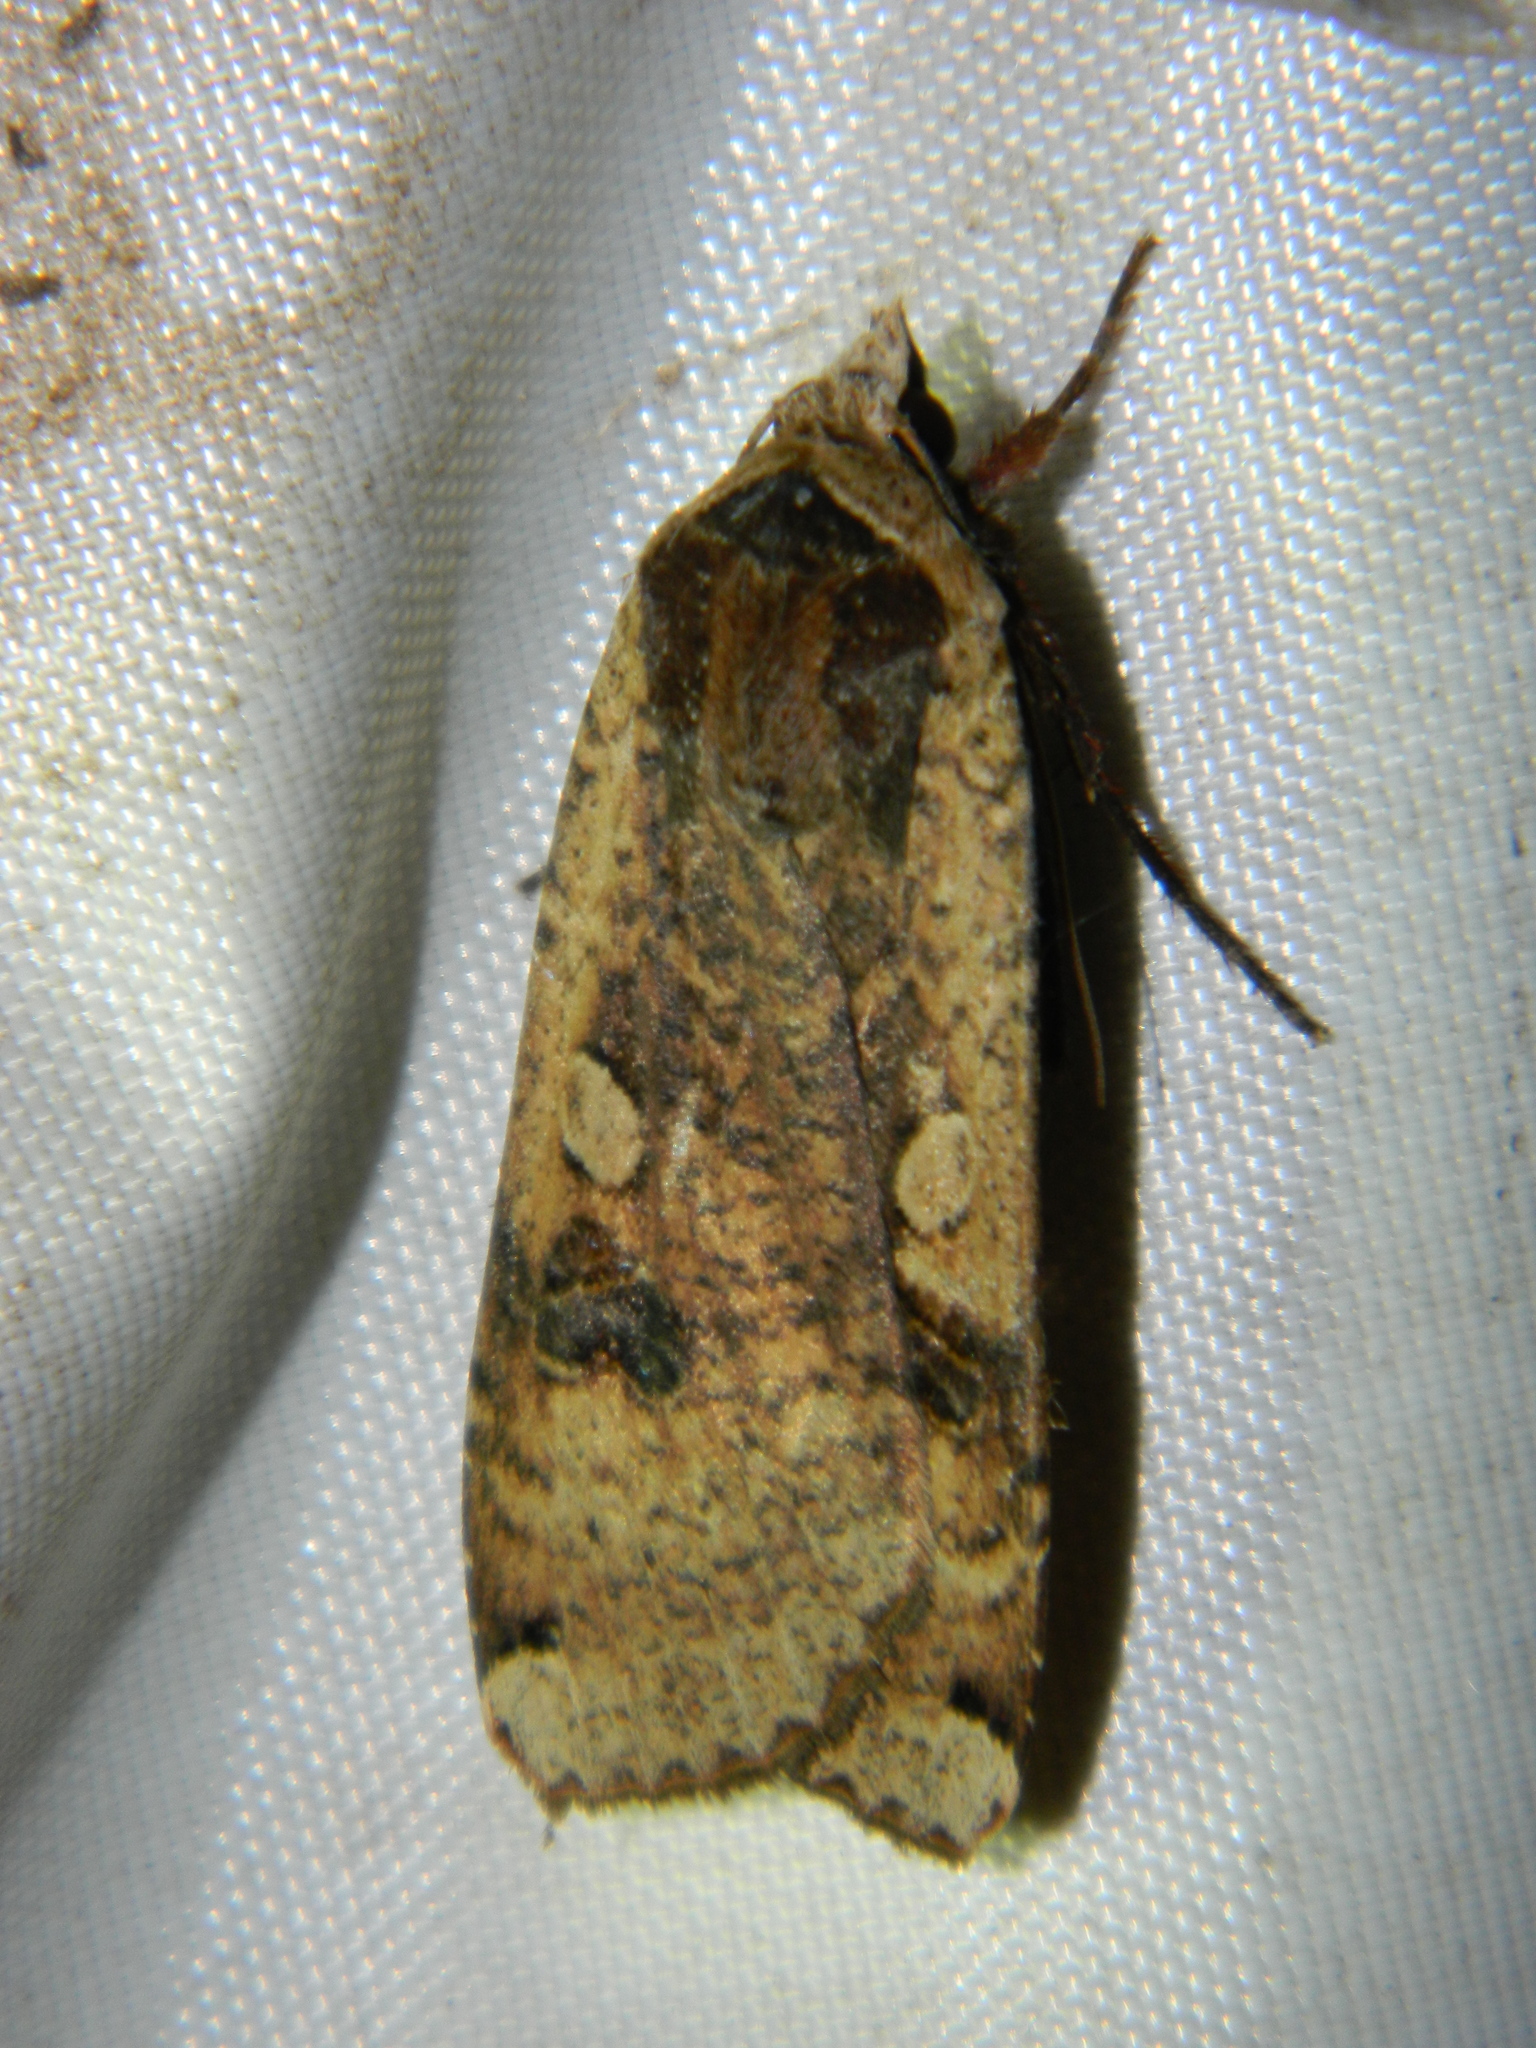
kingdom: Animalia
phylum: Arthropoda
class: Insecta
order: Lepidoptera
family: Noctuidae
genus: Noctua
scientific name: Noctua pronuba
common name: Large yellow underwing
